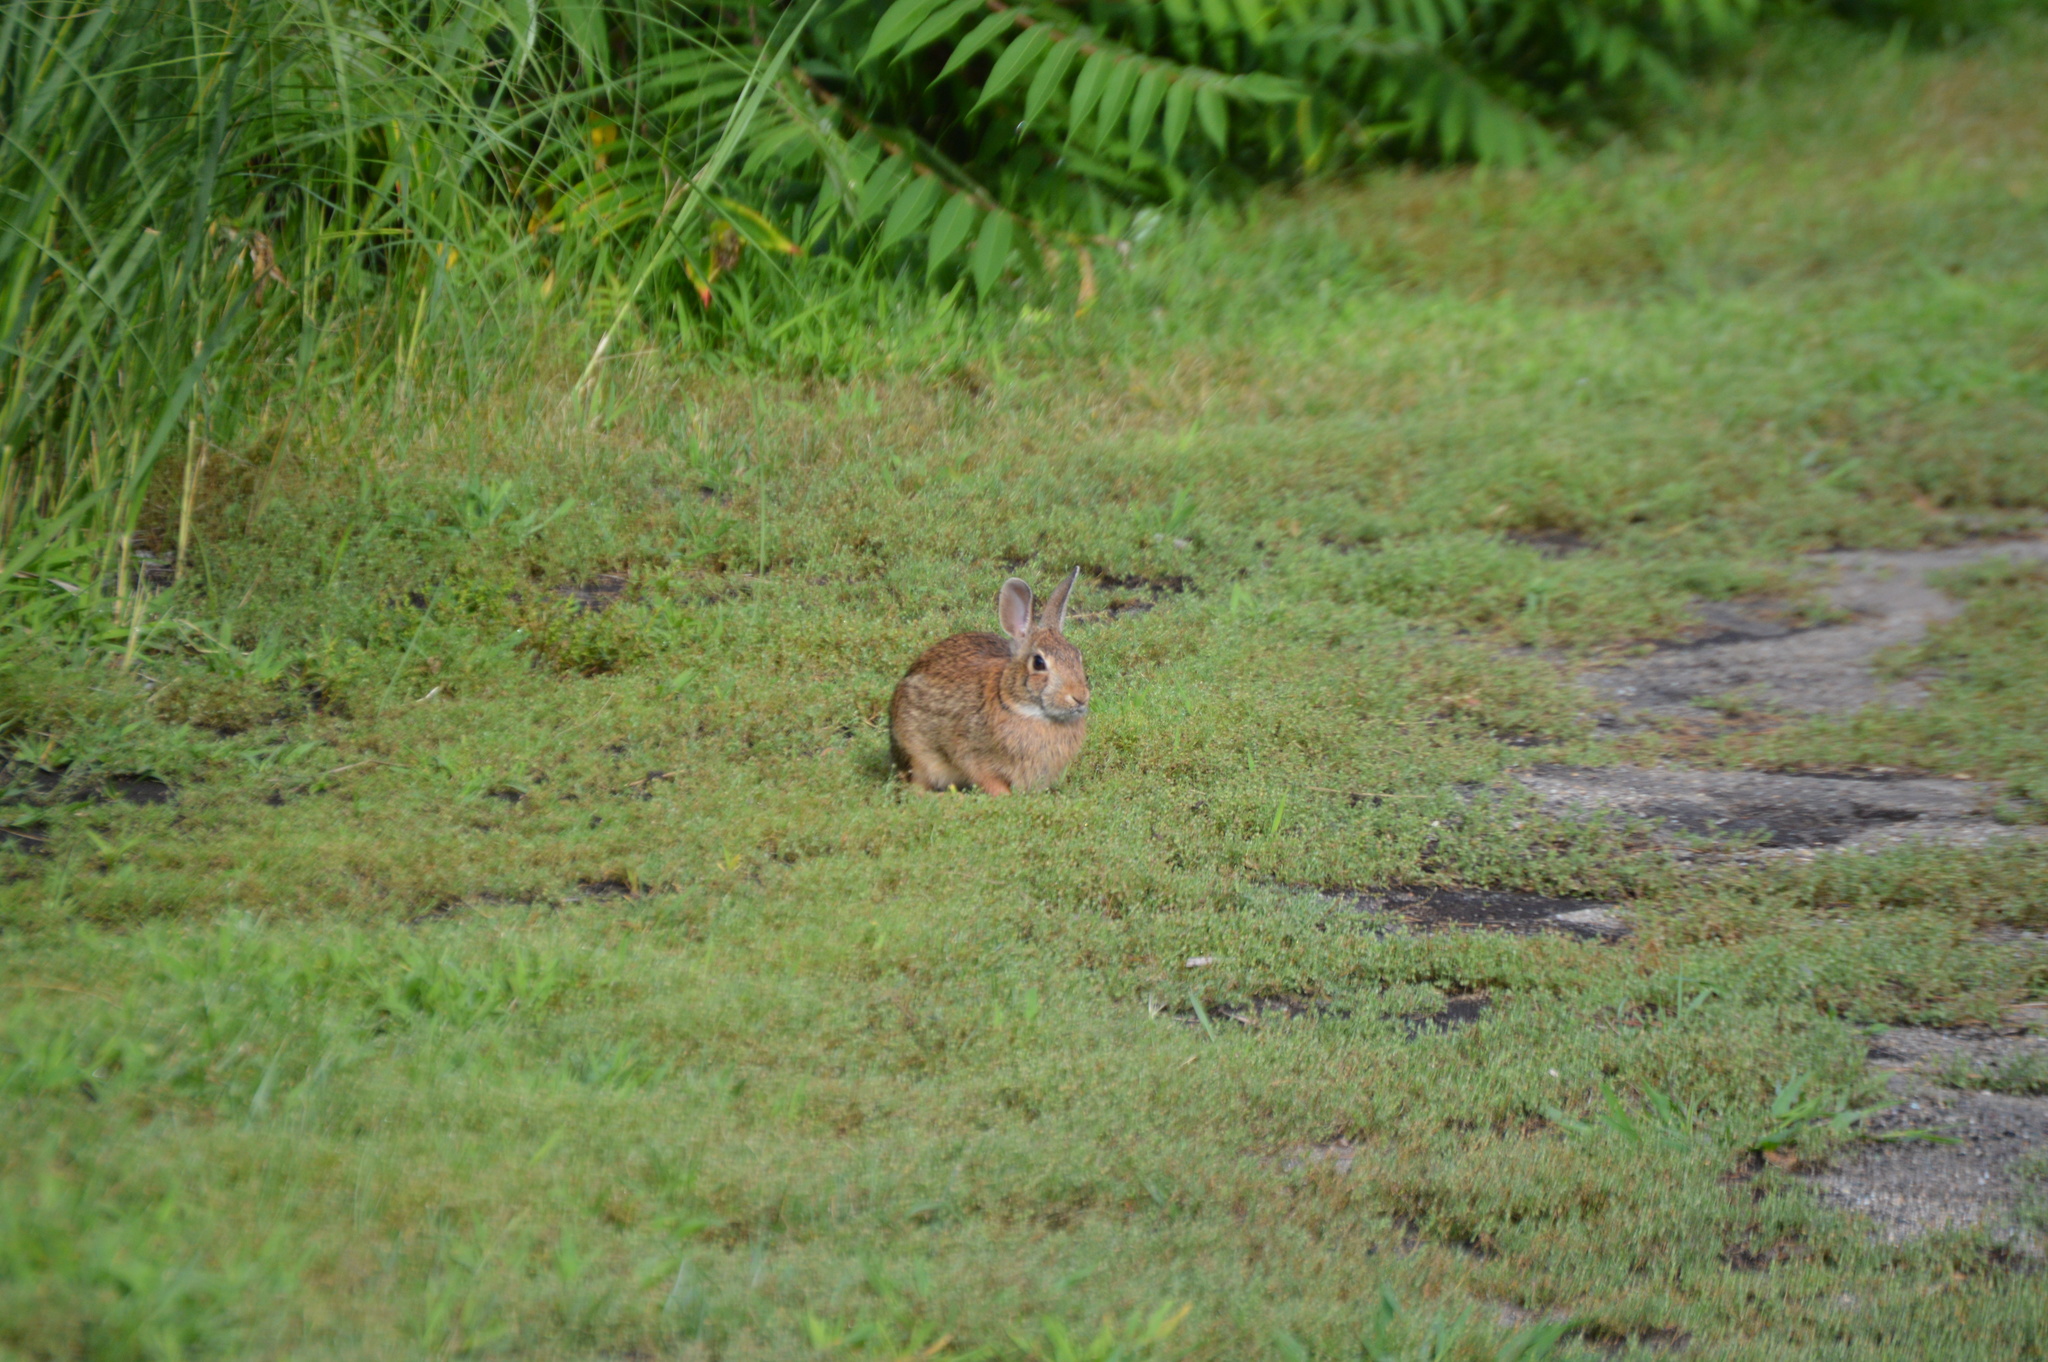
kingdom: Animalia
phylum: Chordata
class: Mammalia
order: Lagomorpha
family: Leporidae
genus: Sylvilagus
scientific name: Sylvilagus floridanus
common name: Eastern cottontail
